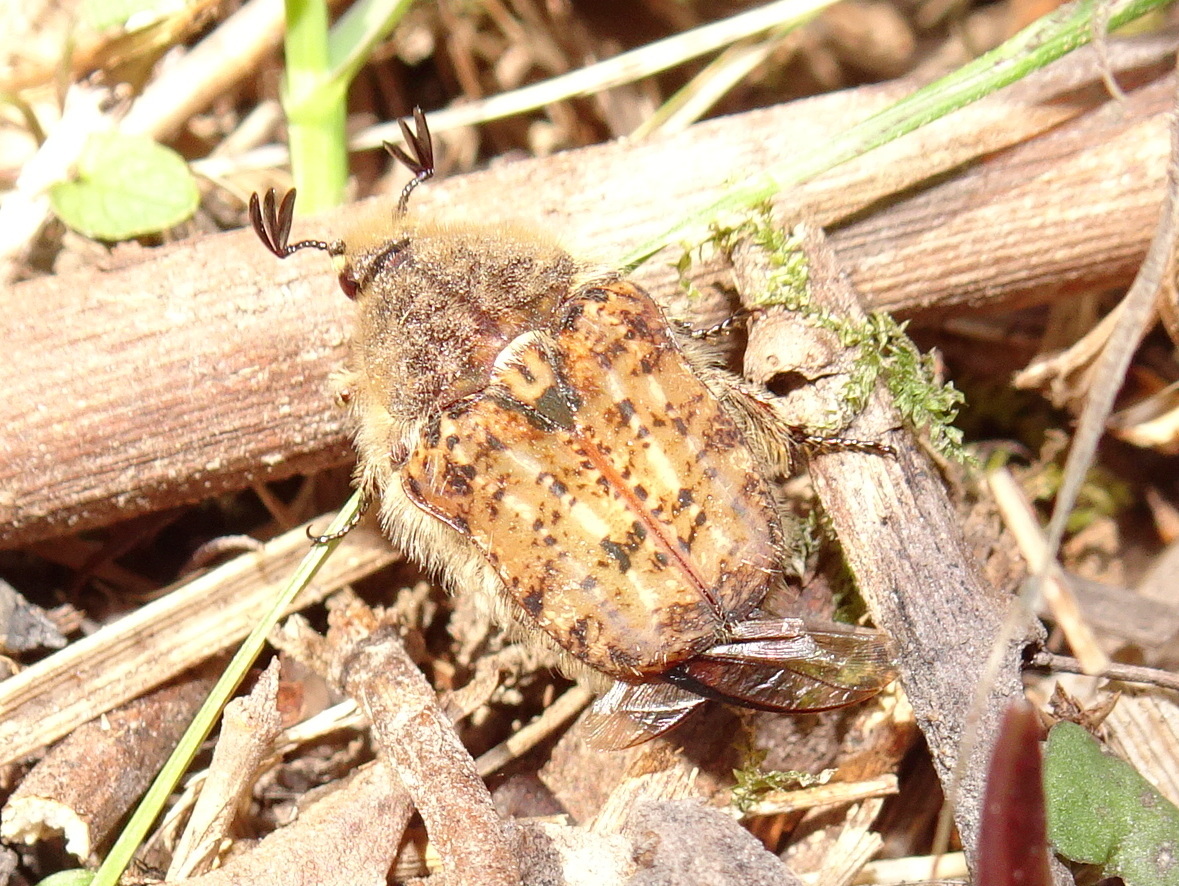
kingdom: Animalia
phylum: Arthropoda
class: Insecta
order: Coleoptera
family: Scarabaeidae
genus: Euphoria
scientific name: Euphoria inda
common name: Bumble flower beetle
